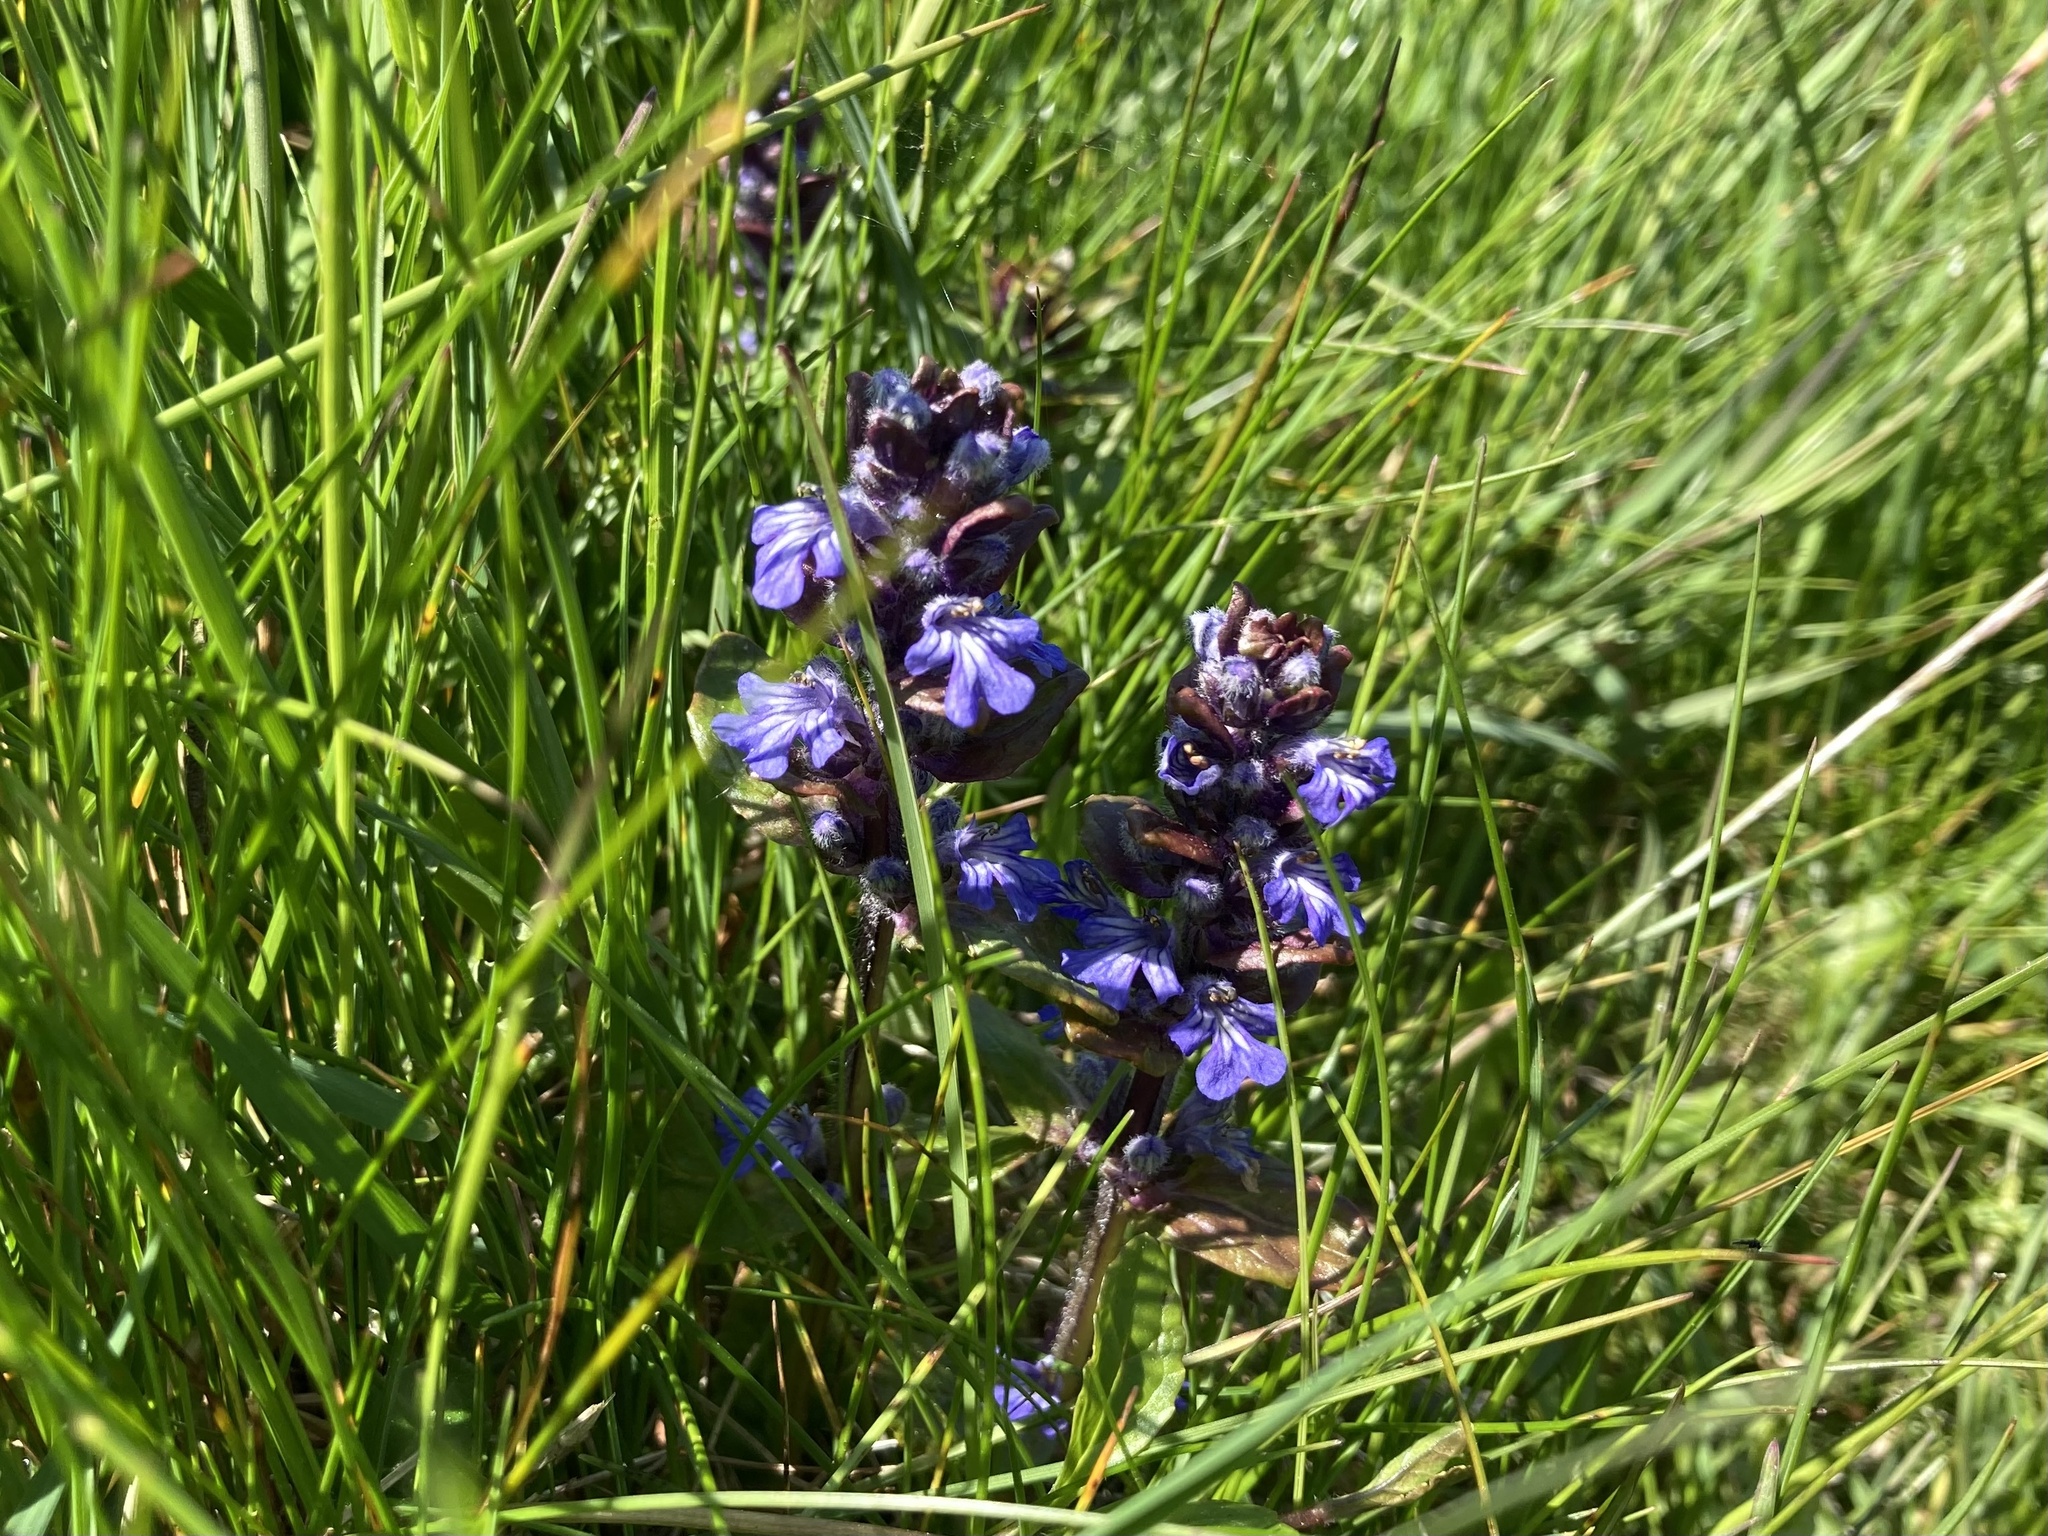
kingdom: Plantae
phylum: Tracheophyta
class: Magnoliopsida
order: Lamiales
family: Lamiaceae
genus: Ajuga
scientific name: Ajuga reptans
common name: Bugle
